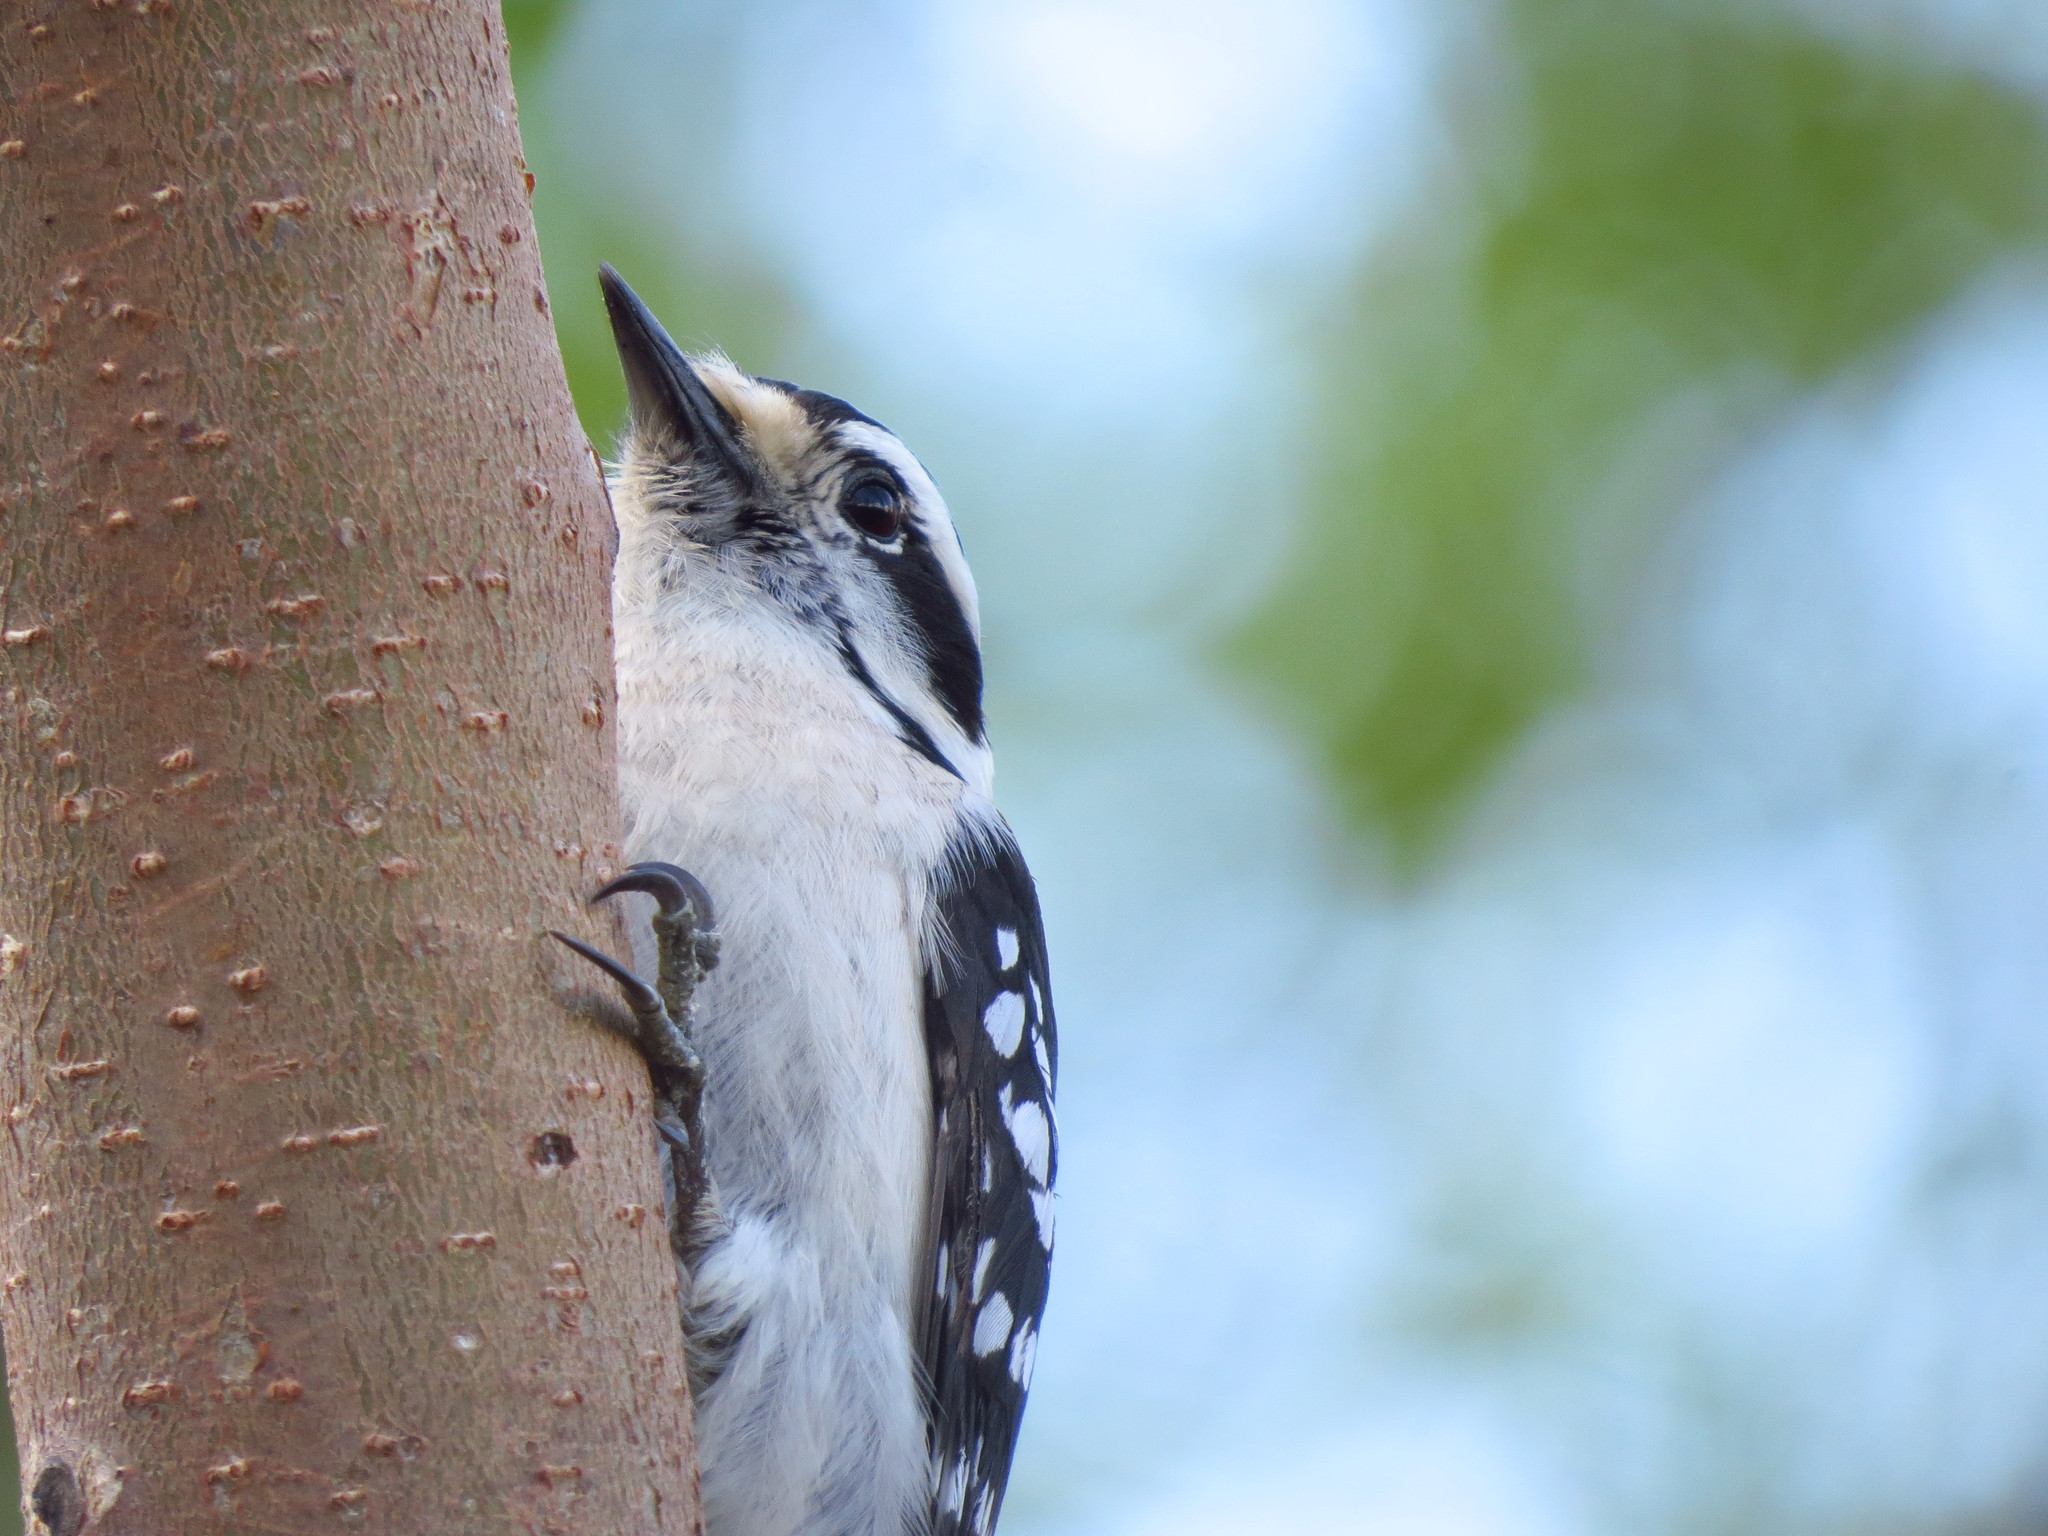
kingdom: Animalia
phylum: Chordata
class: Aves
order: Piciformes
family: Picidae
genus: Dryobates
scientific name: Dryobates pubescens
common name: Downy woodpecker
